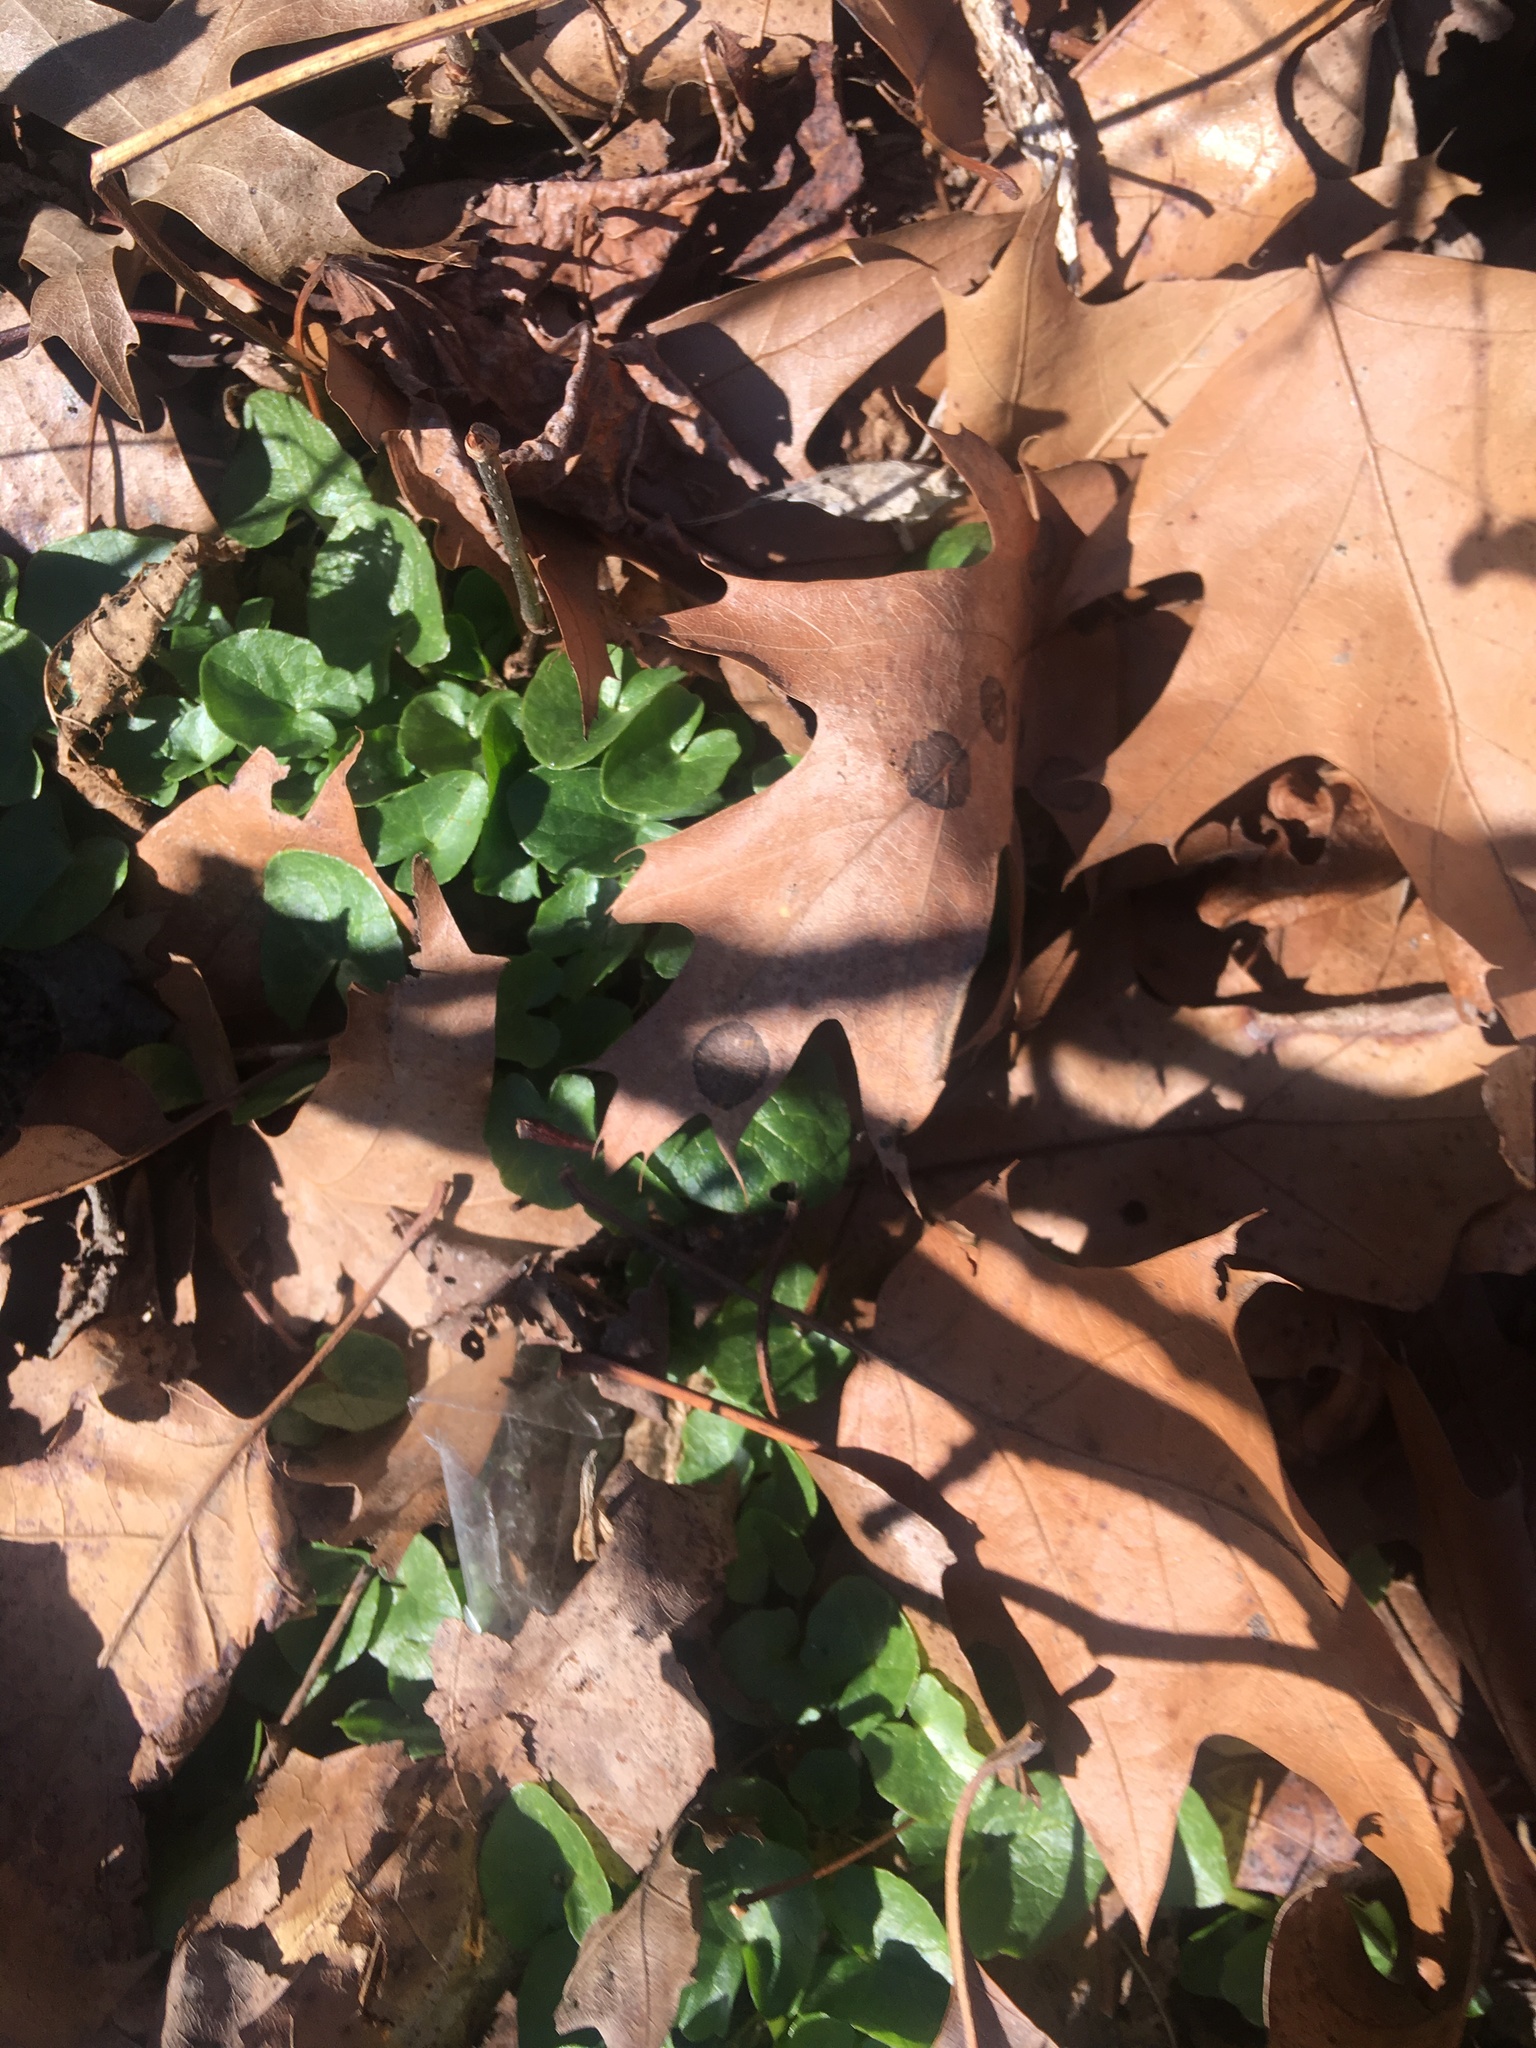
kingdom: Plantae
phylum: Tracheophyta
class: Magnoliopsida
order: Ranunculales
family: Ranunculaceae
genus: Ficaria
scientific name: Ficaria verna
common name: Lesser celandine
